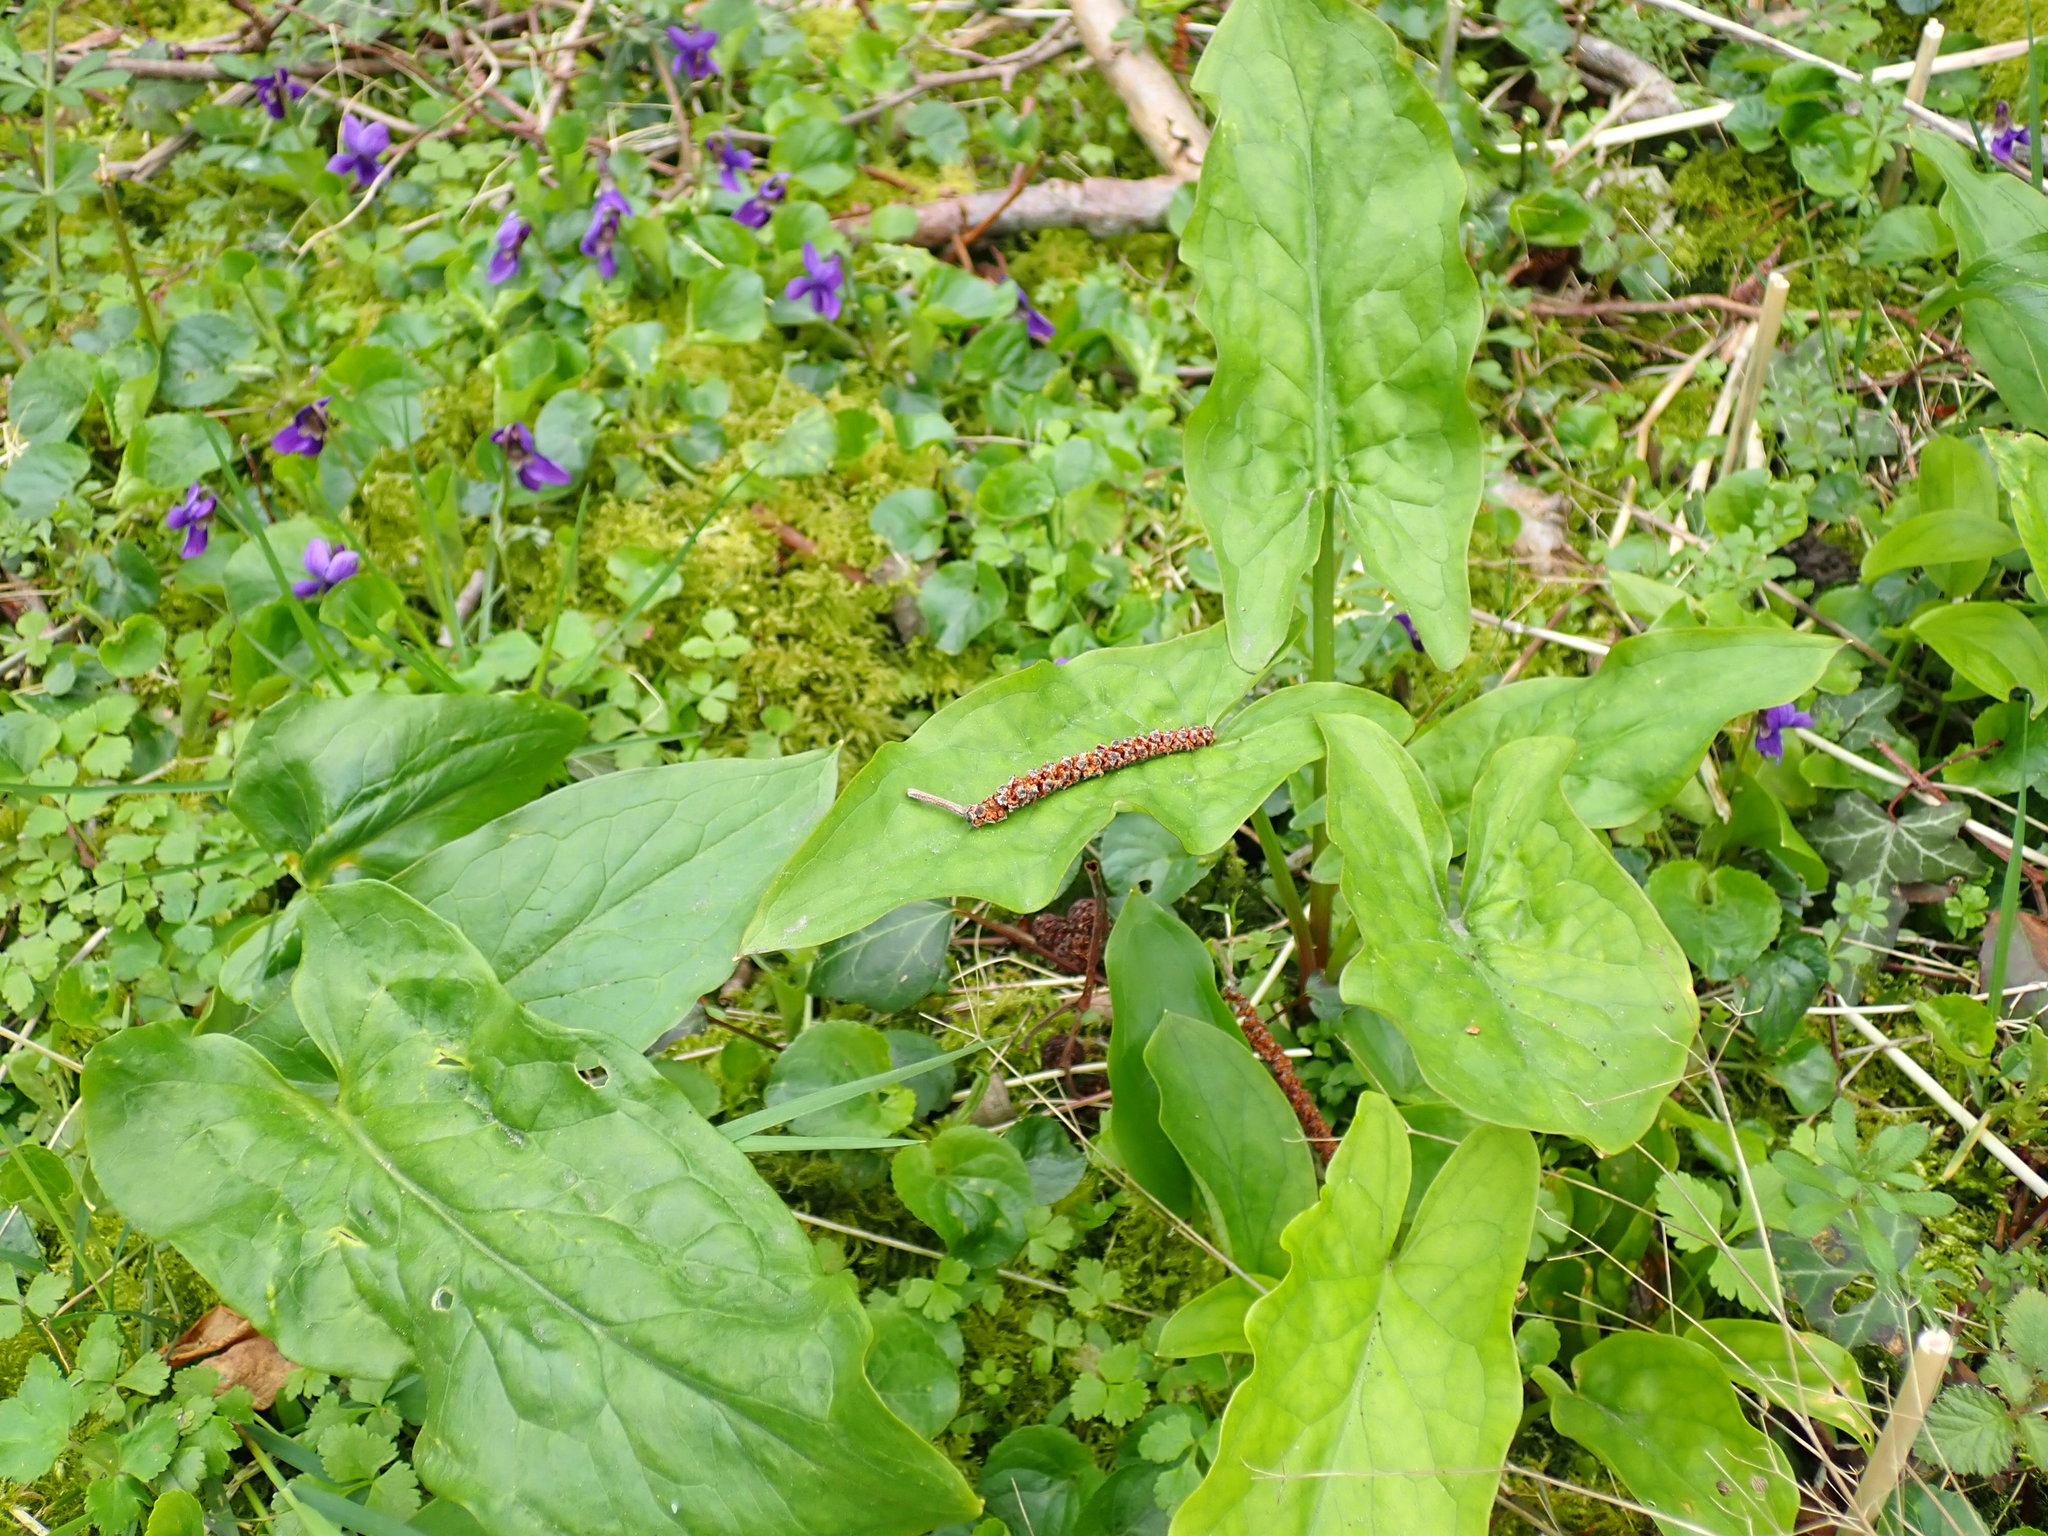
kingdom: Plantae
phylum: Tracheophyta
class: Liliopsida
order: Alismatales
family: Araceae
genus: Arum
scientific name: Arum maculatum
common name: Lords-and-ladies
